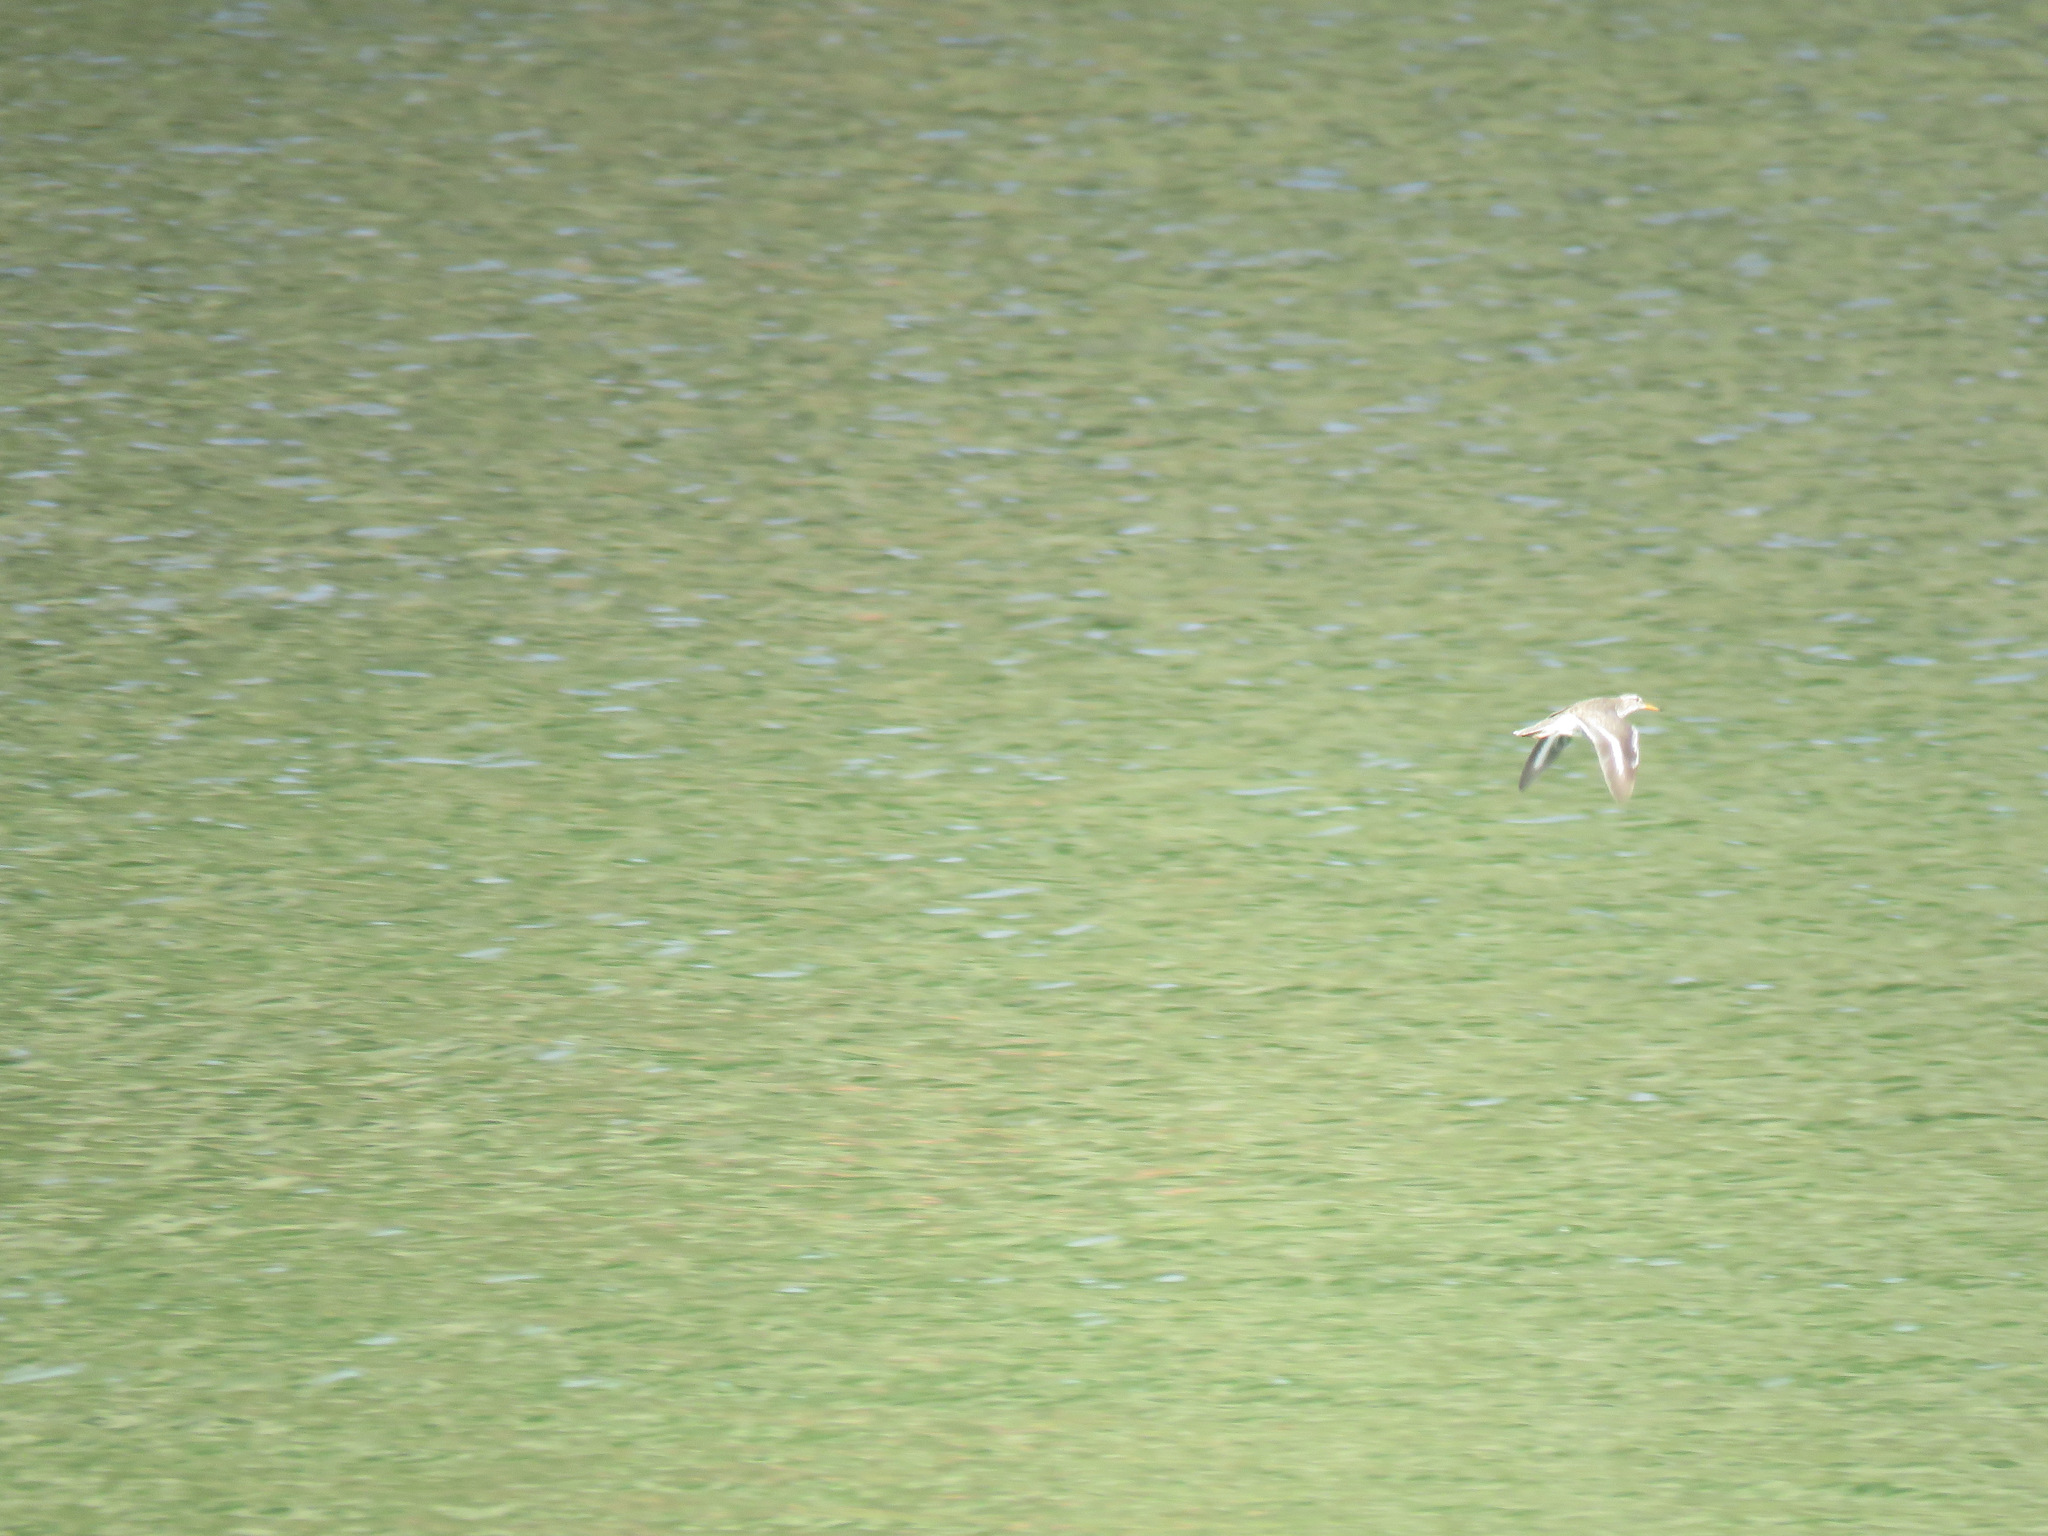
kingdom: Animalia
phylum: Chordata
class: Aves
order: Charadriiformes
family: Scolopacidae
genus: Actitis
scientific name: Actitis macularius
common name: Spotted sandpiper
